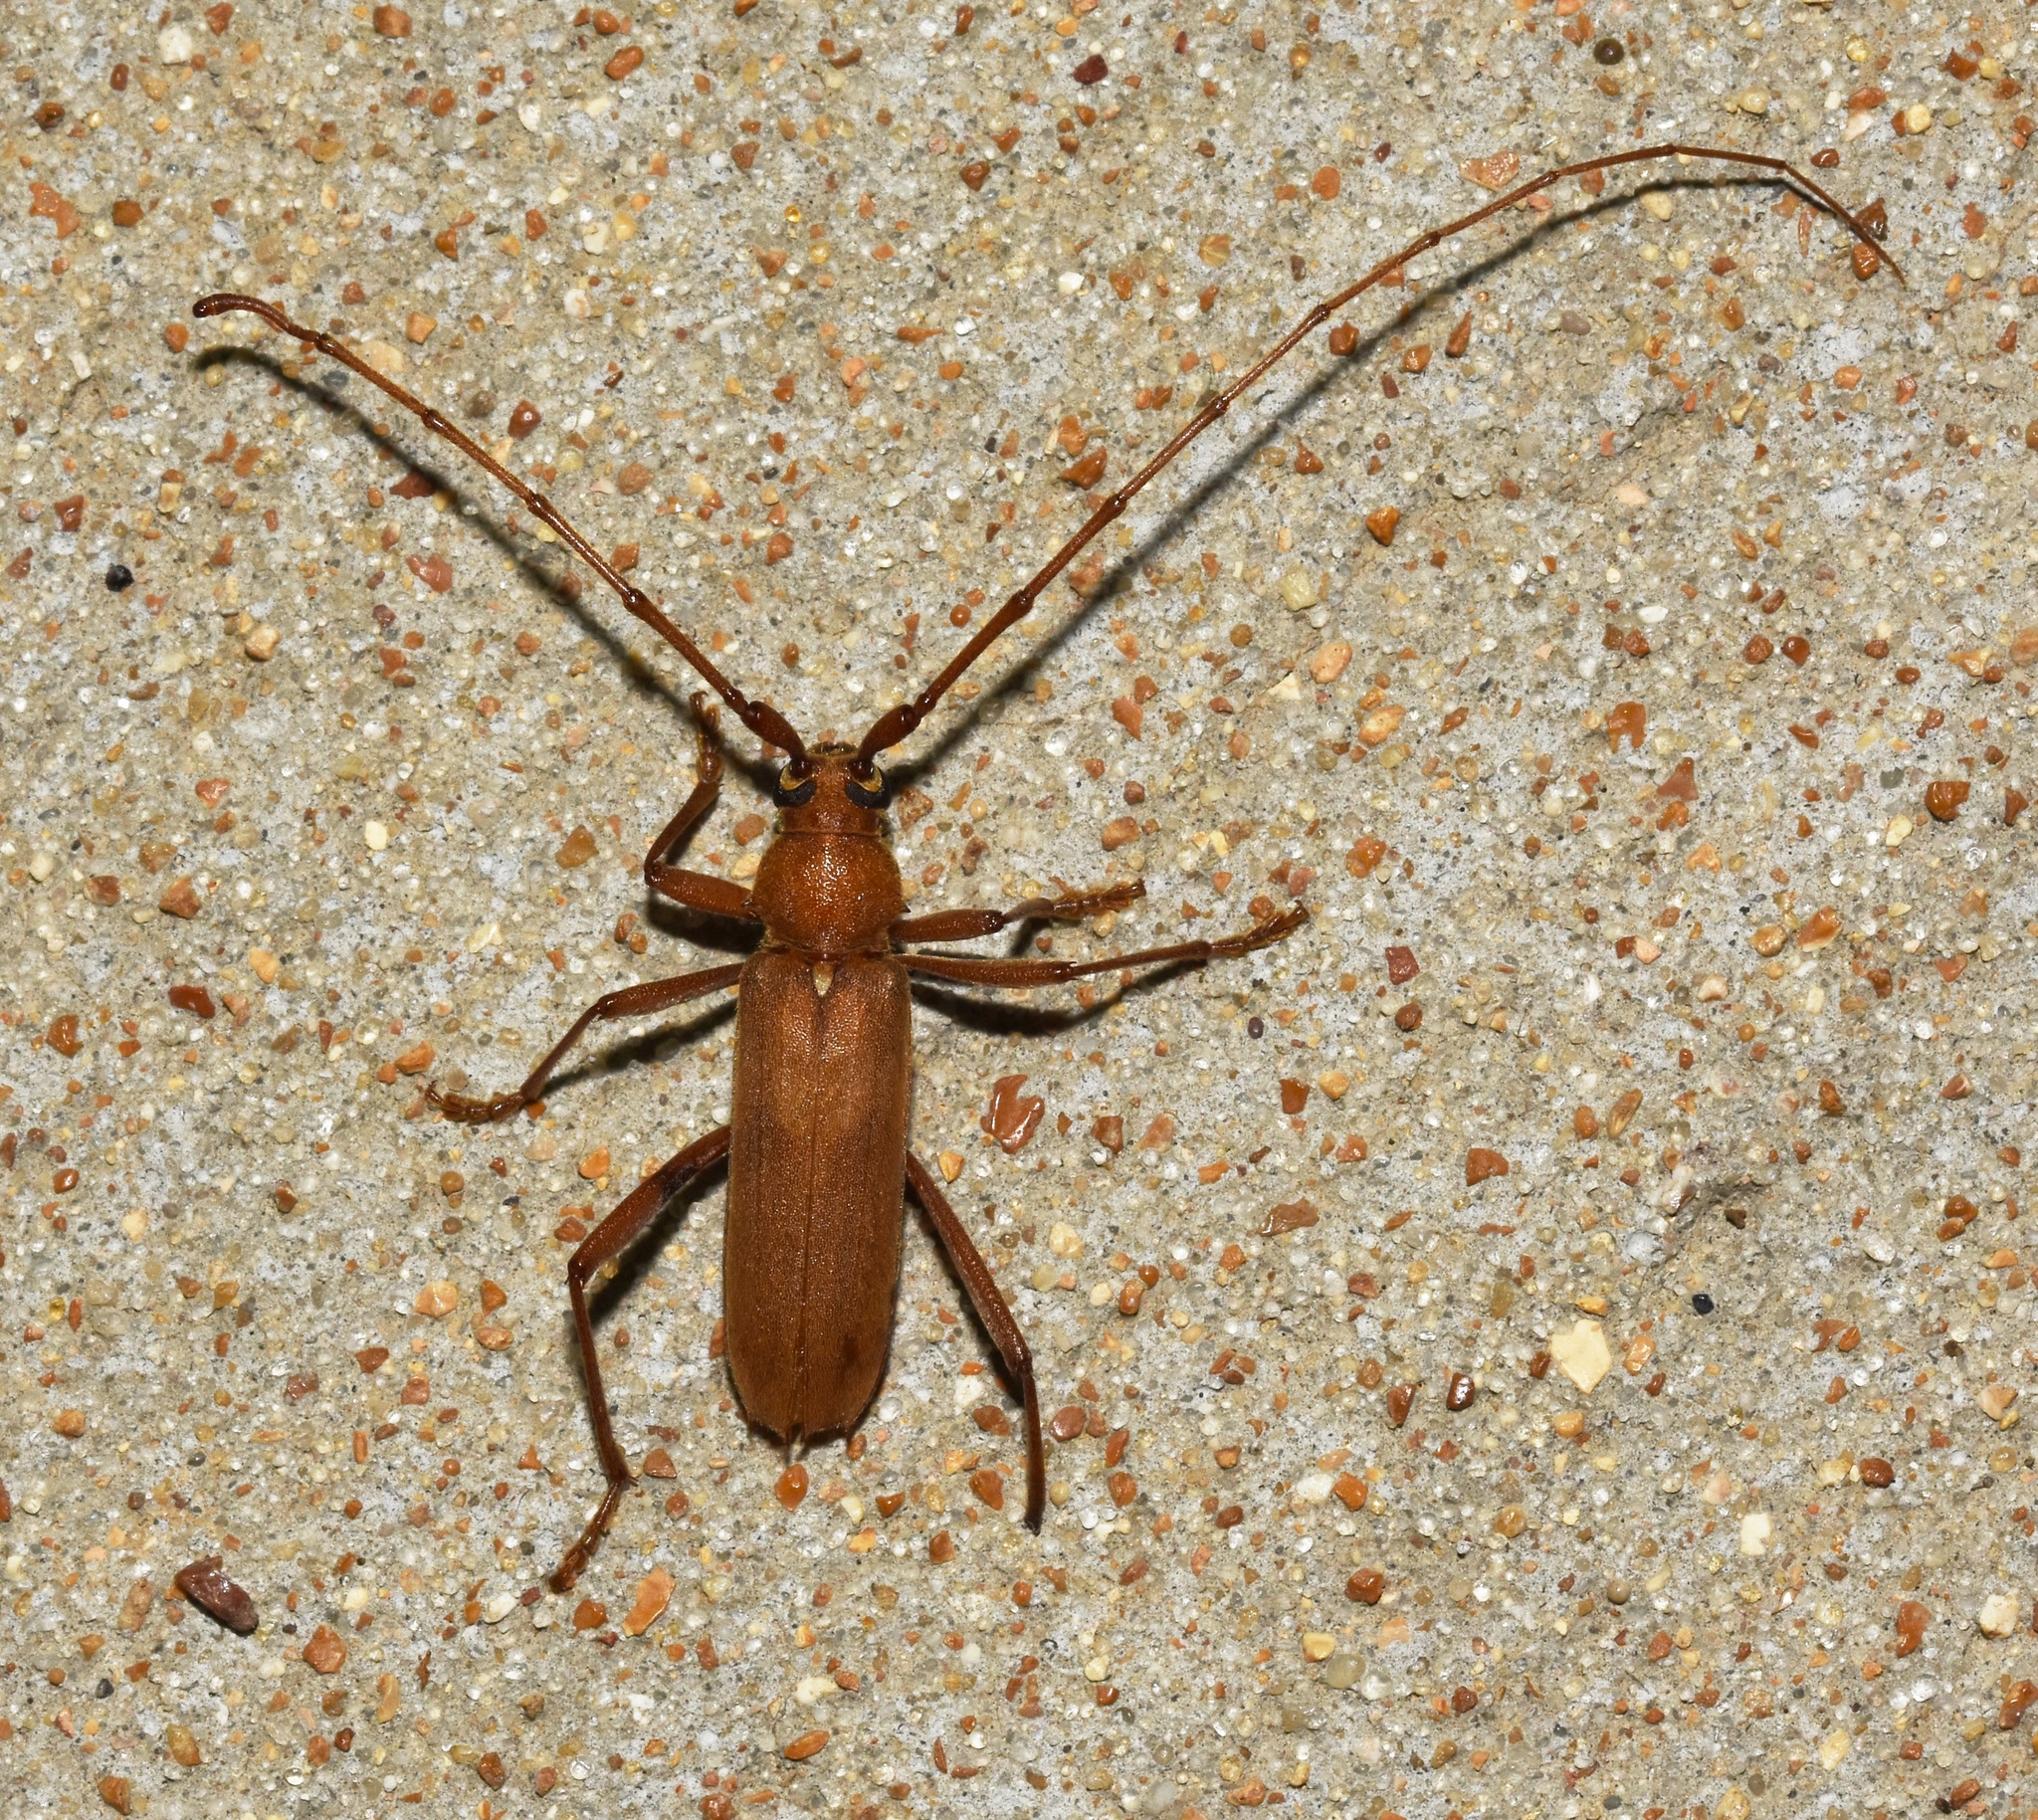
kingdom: Animalia
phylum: Arthropoda
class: Insecta
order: Coleoptera
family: Cerambycidae
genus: Knulliana
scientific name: Knulliana cincta
